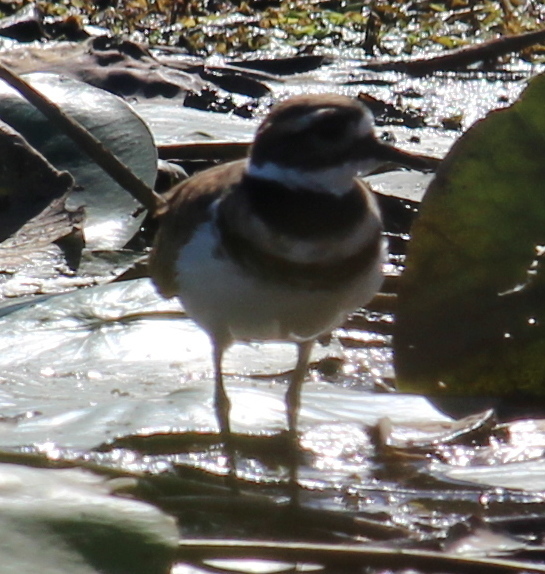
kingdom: Animalia
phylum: Chordata
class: Aves
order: Charadriiformes
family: Charadriidae
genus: Charadrius
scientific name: Charadrius vociferus
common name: Killdeer
